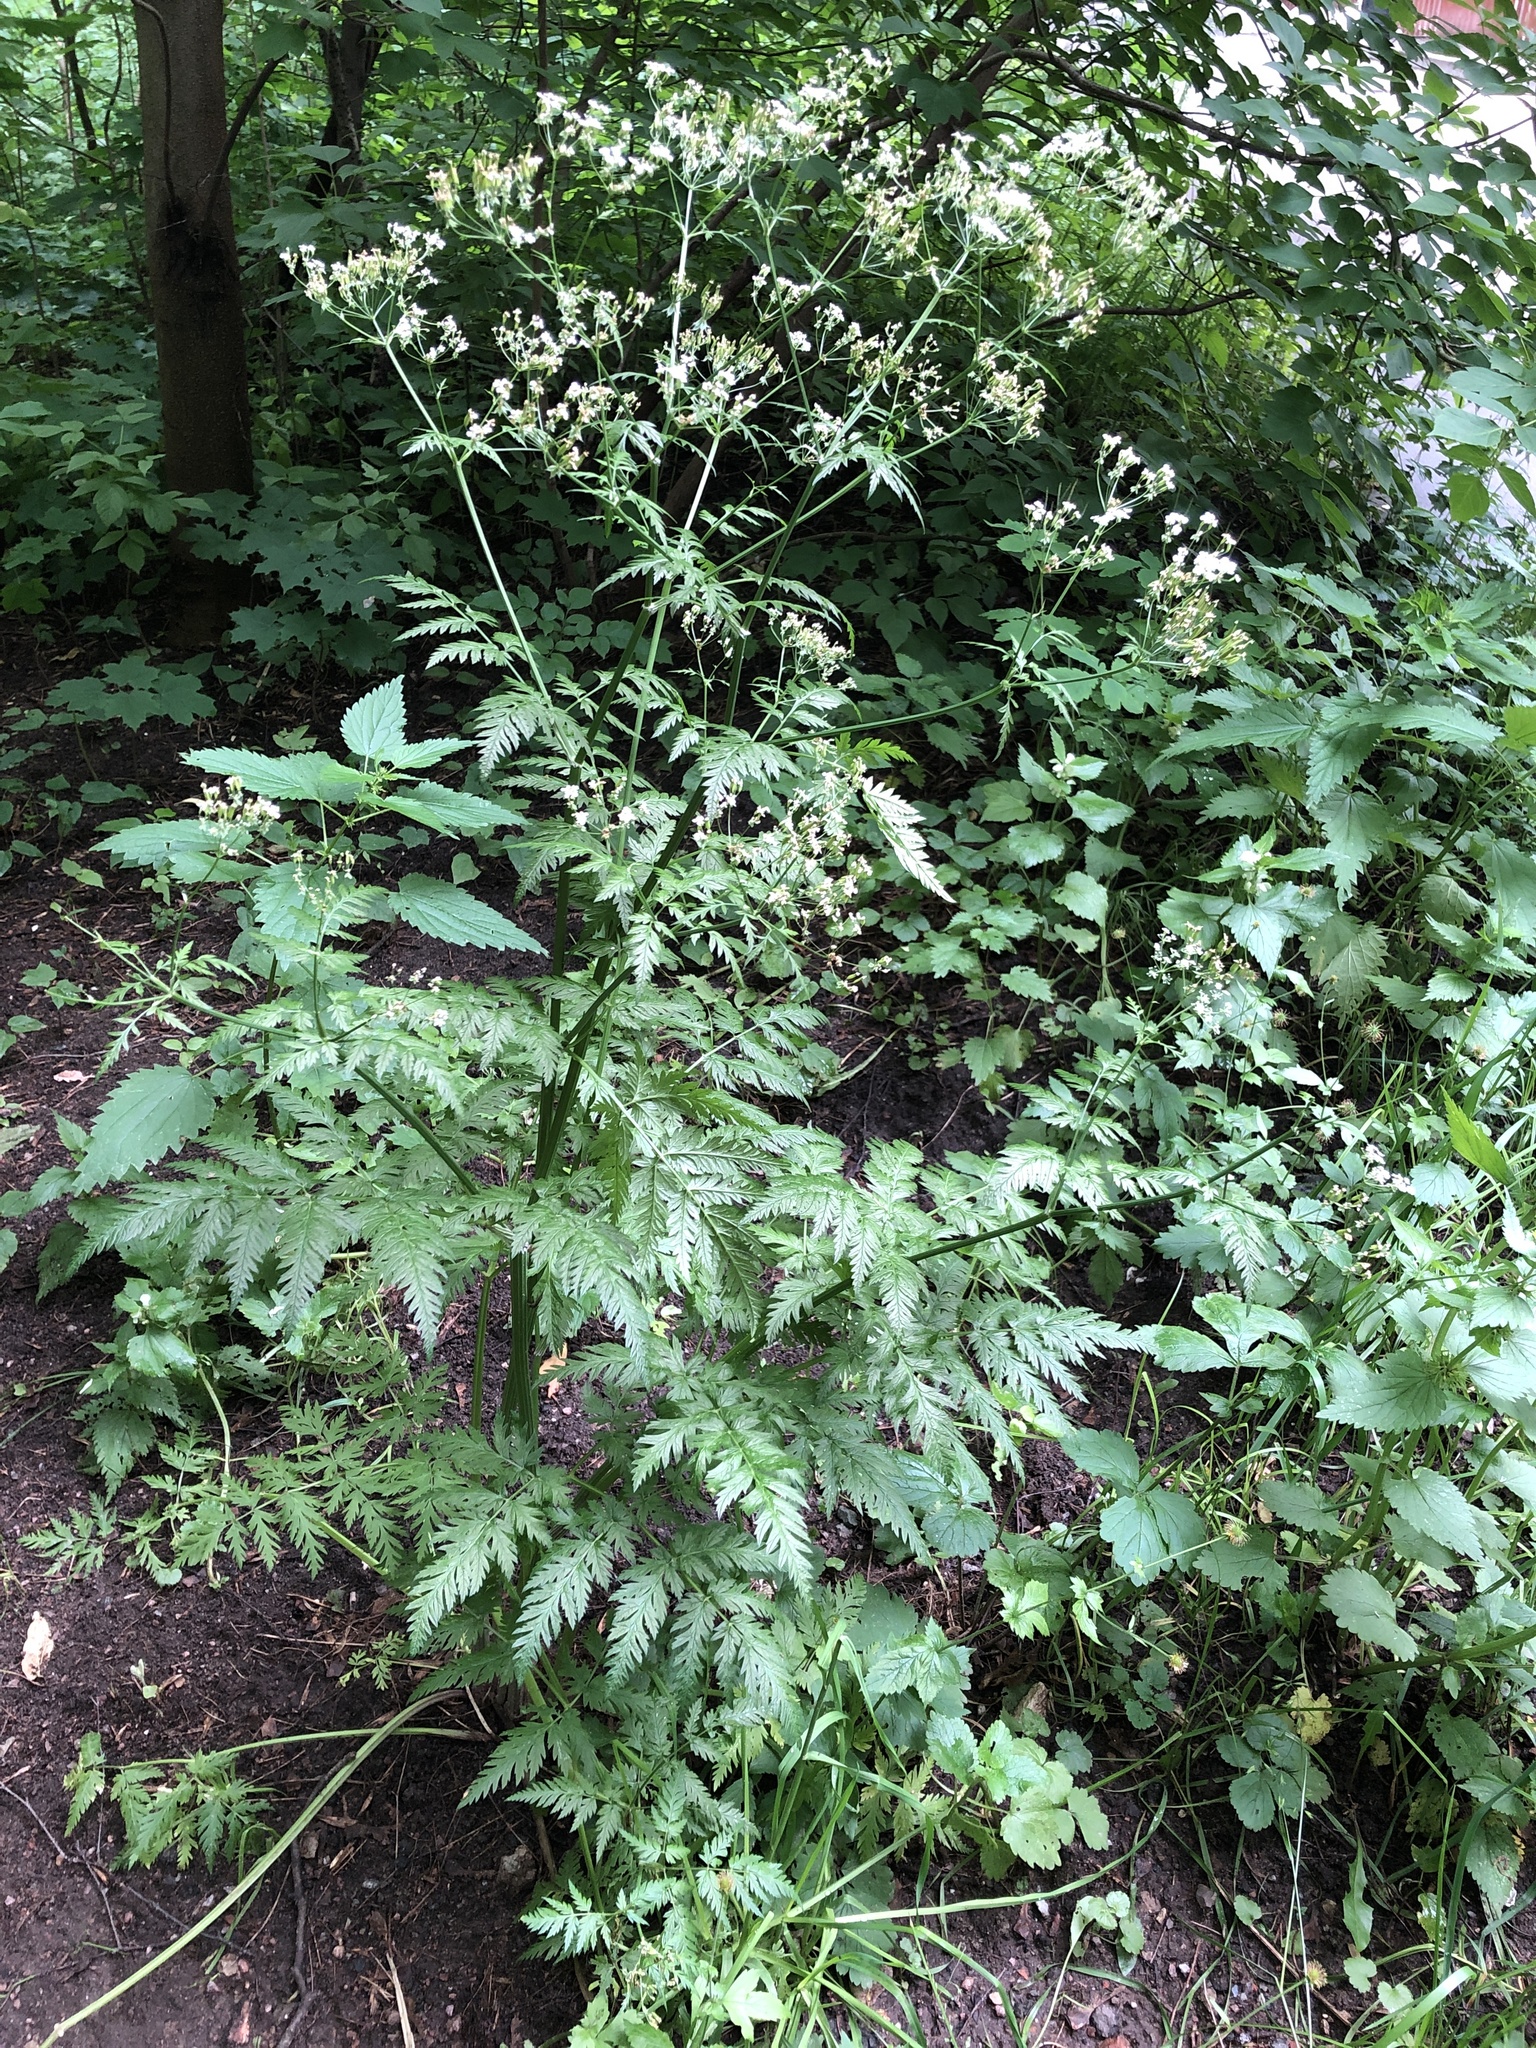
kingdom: Plantae
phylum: Tracheophyta
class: Magnoliopsida
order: Apiales
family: Apiaceae
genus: Anthriscus
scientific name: Anthriscus sylvestris
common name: Cow parsley
